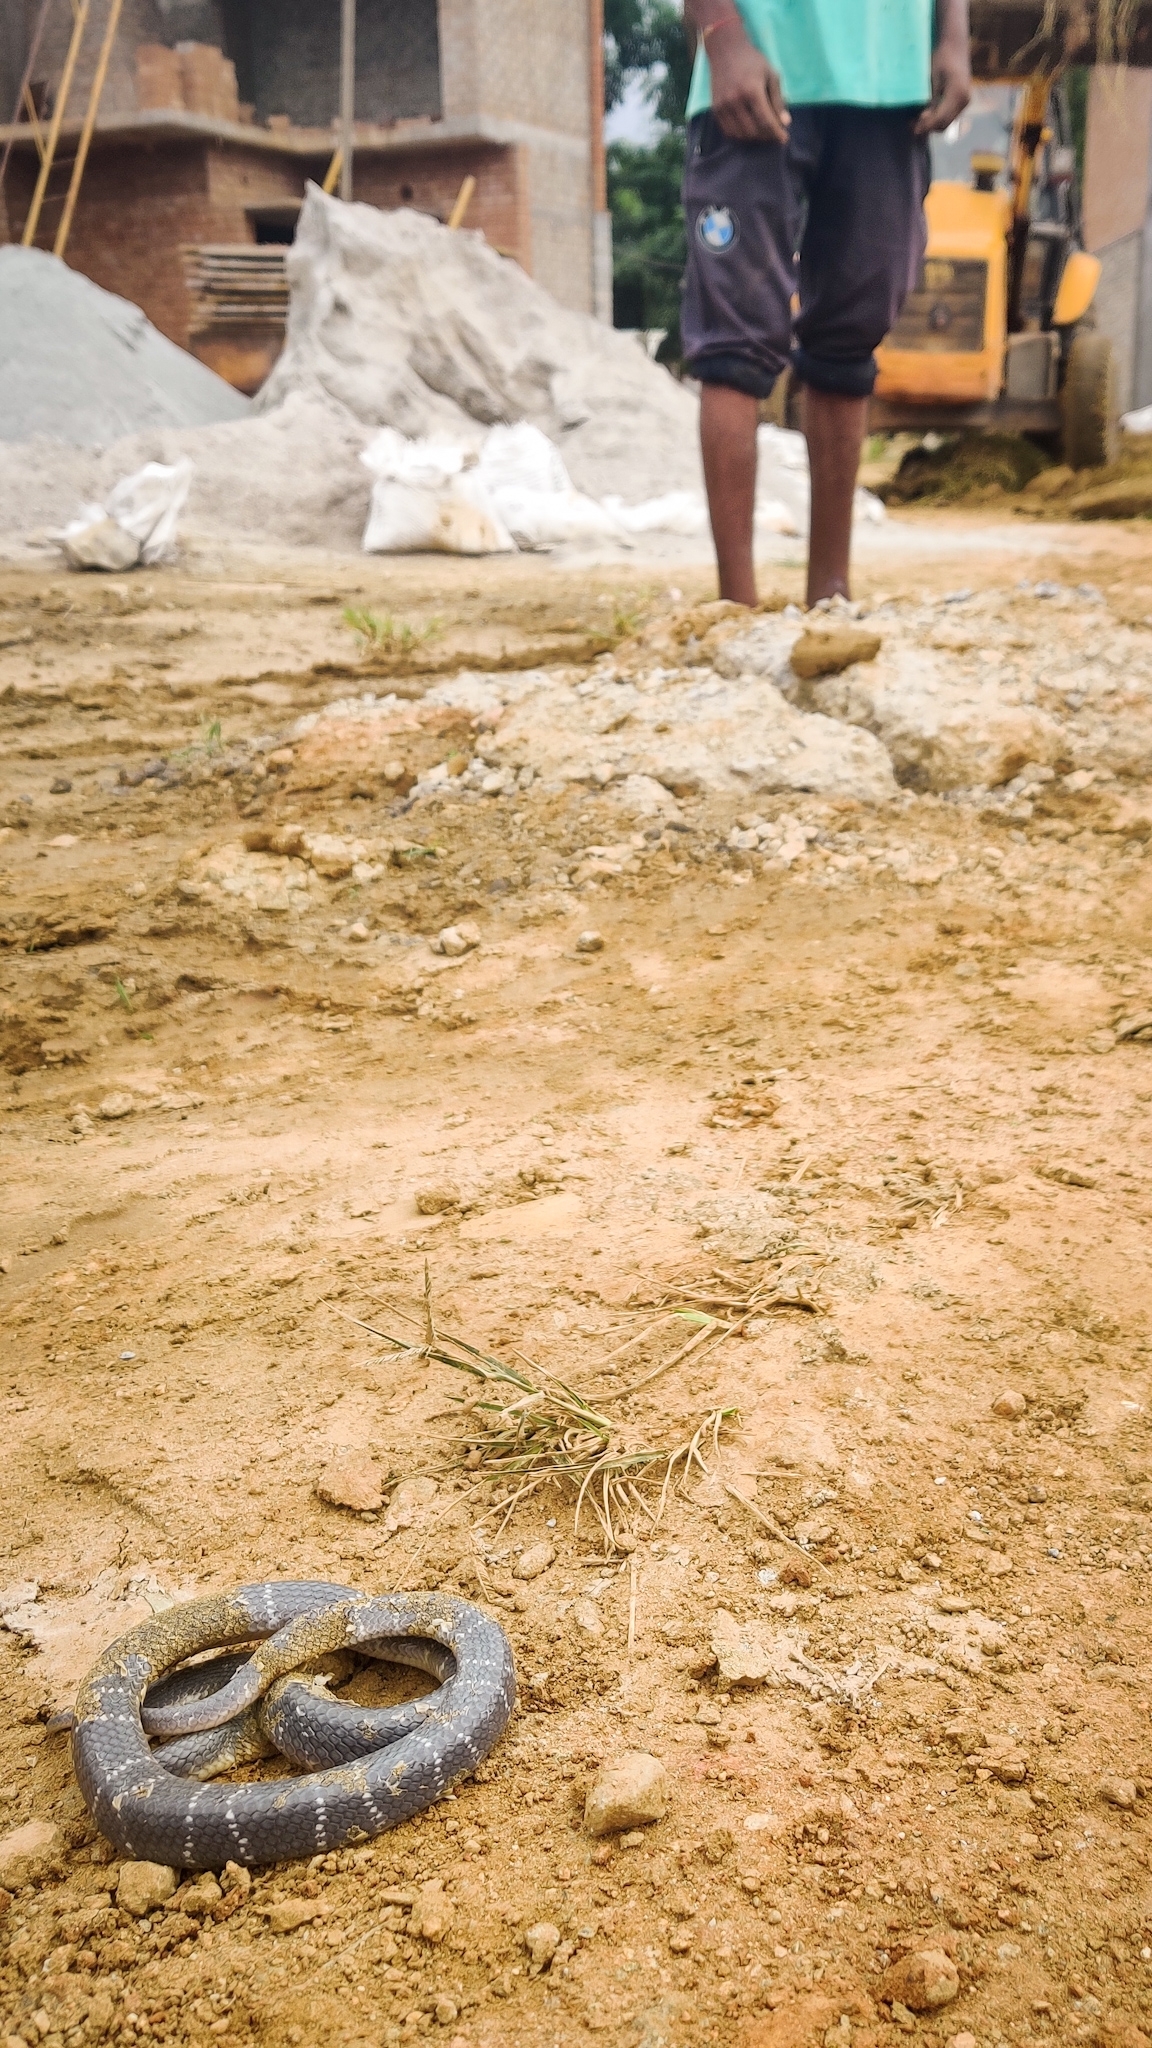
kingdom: Animalia
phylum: Chordata
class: Squamata
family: Elapidae
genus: Bungarus
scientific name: Bungarus caeruleus
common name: Common krait
